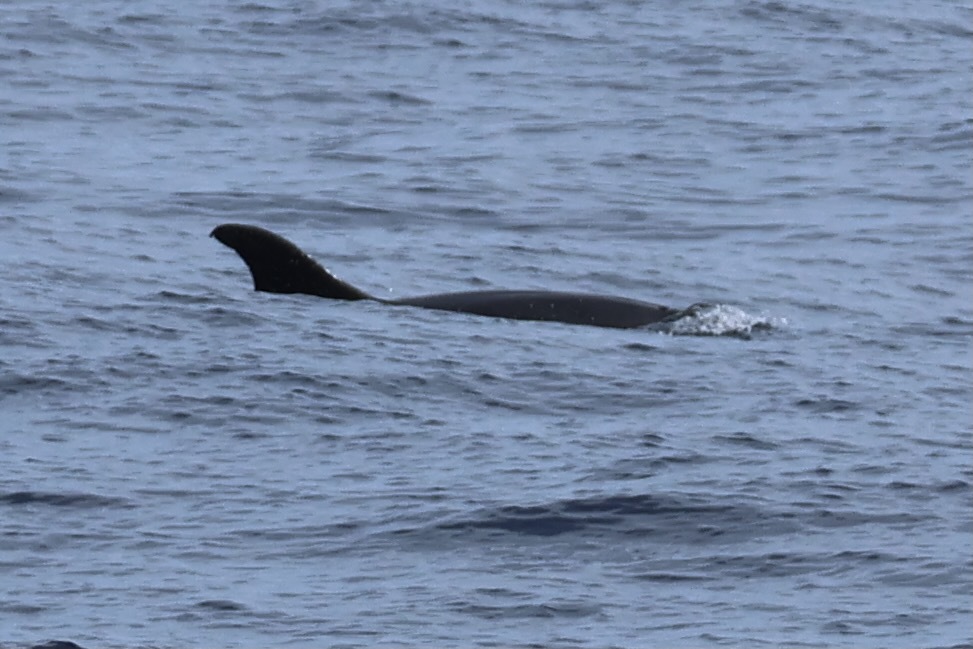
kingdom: Animalia
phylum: Chordata
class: Mammalia
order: Cetacea
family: Delphinidae
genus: Tursiops
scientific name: Tursiops truncatus
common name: Bottlenose dolphin
